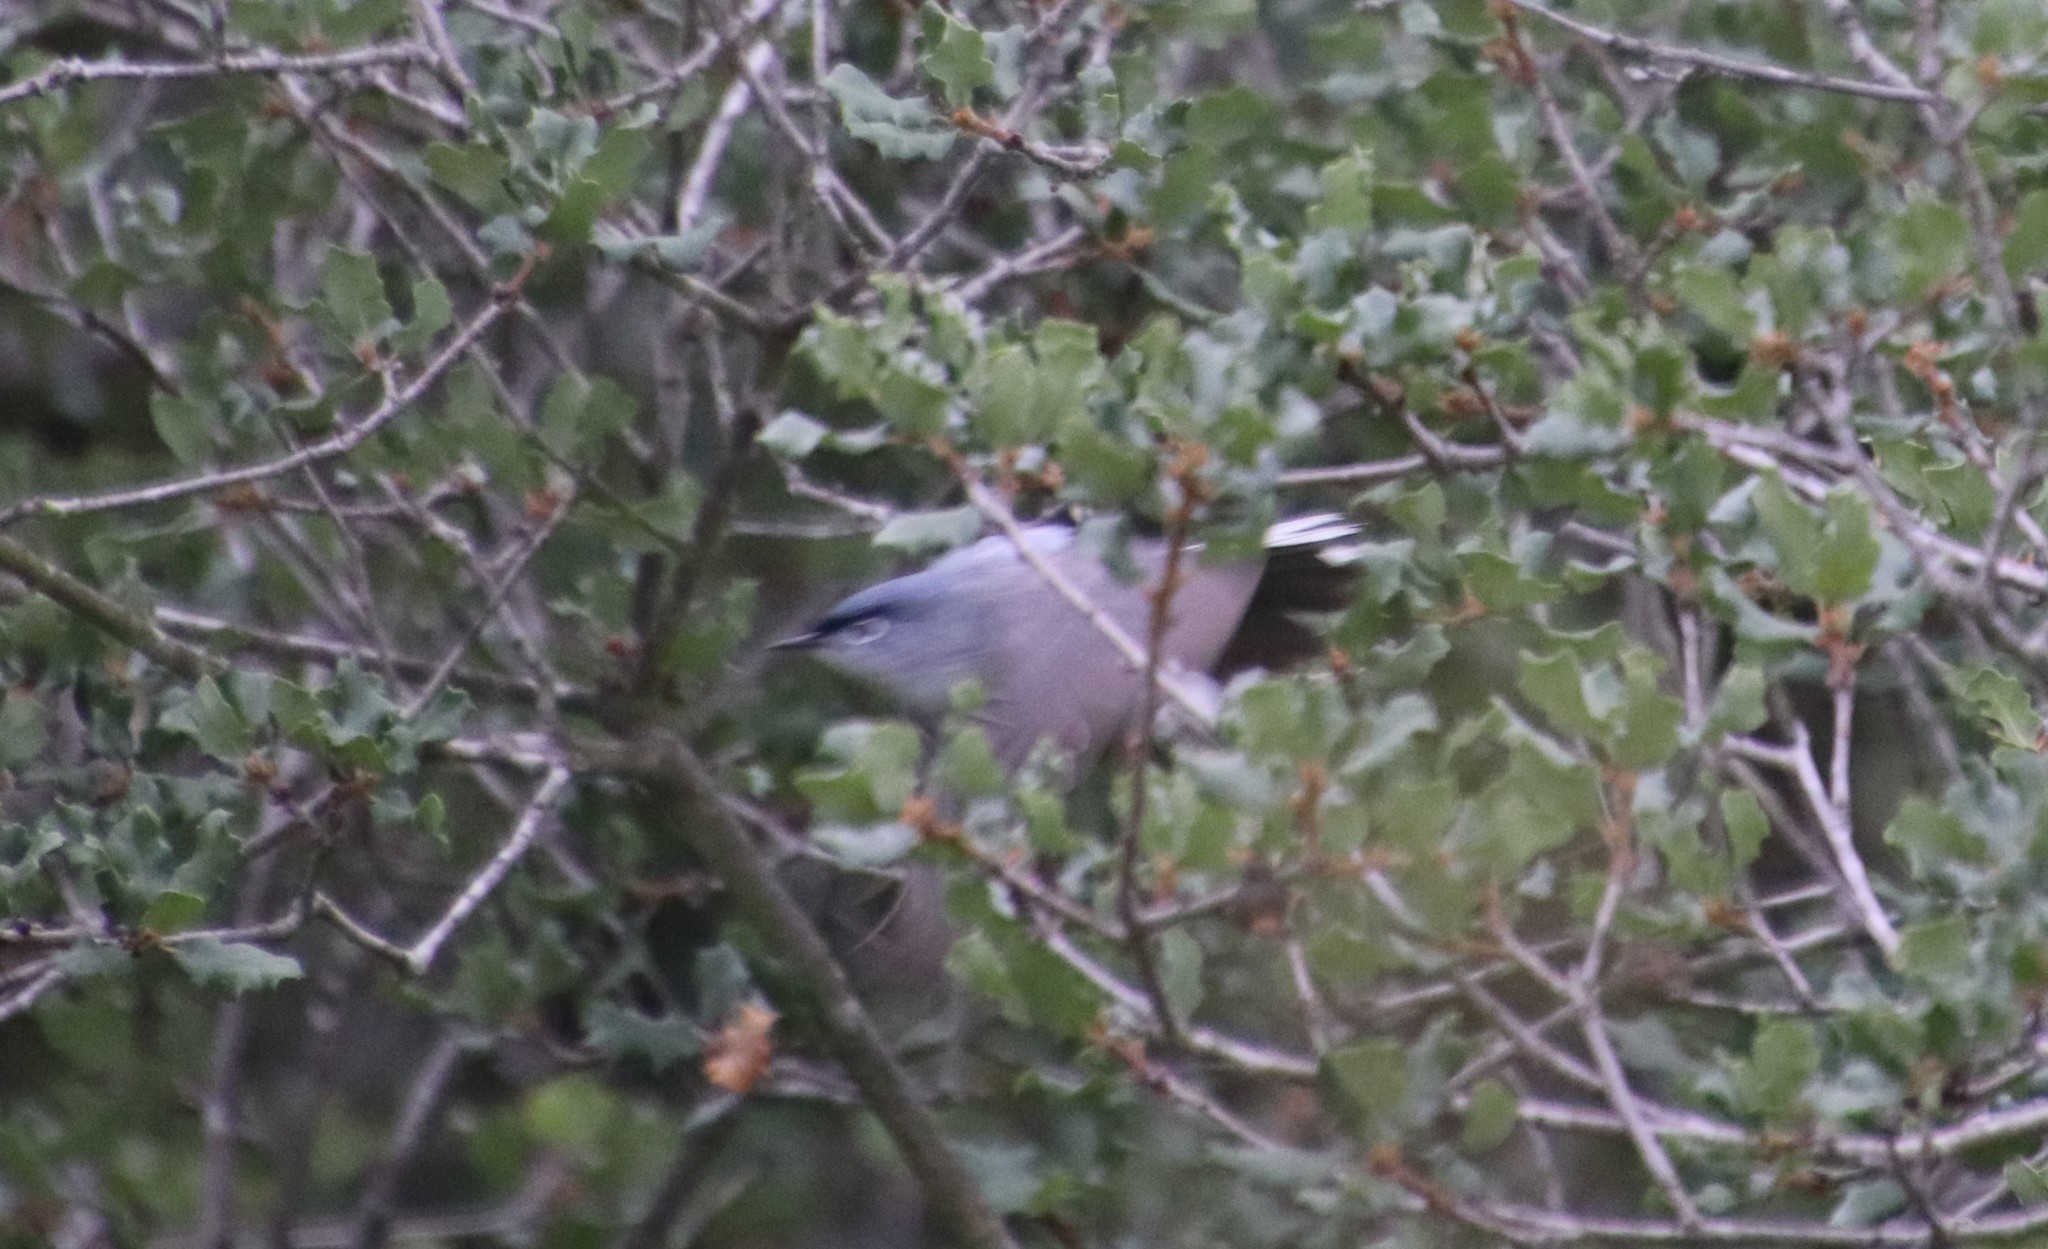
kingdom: Animalia
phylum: Chordata
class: Aves
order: Passeriformes
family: Polioptilidae
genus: Polioptila
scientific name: Polioptila caerulea
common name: Blue-gray gnatcatcher
